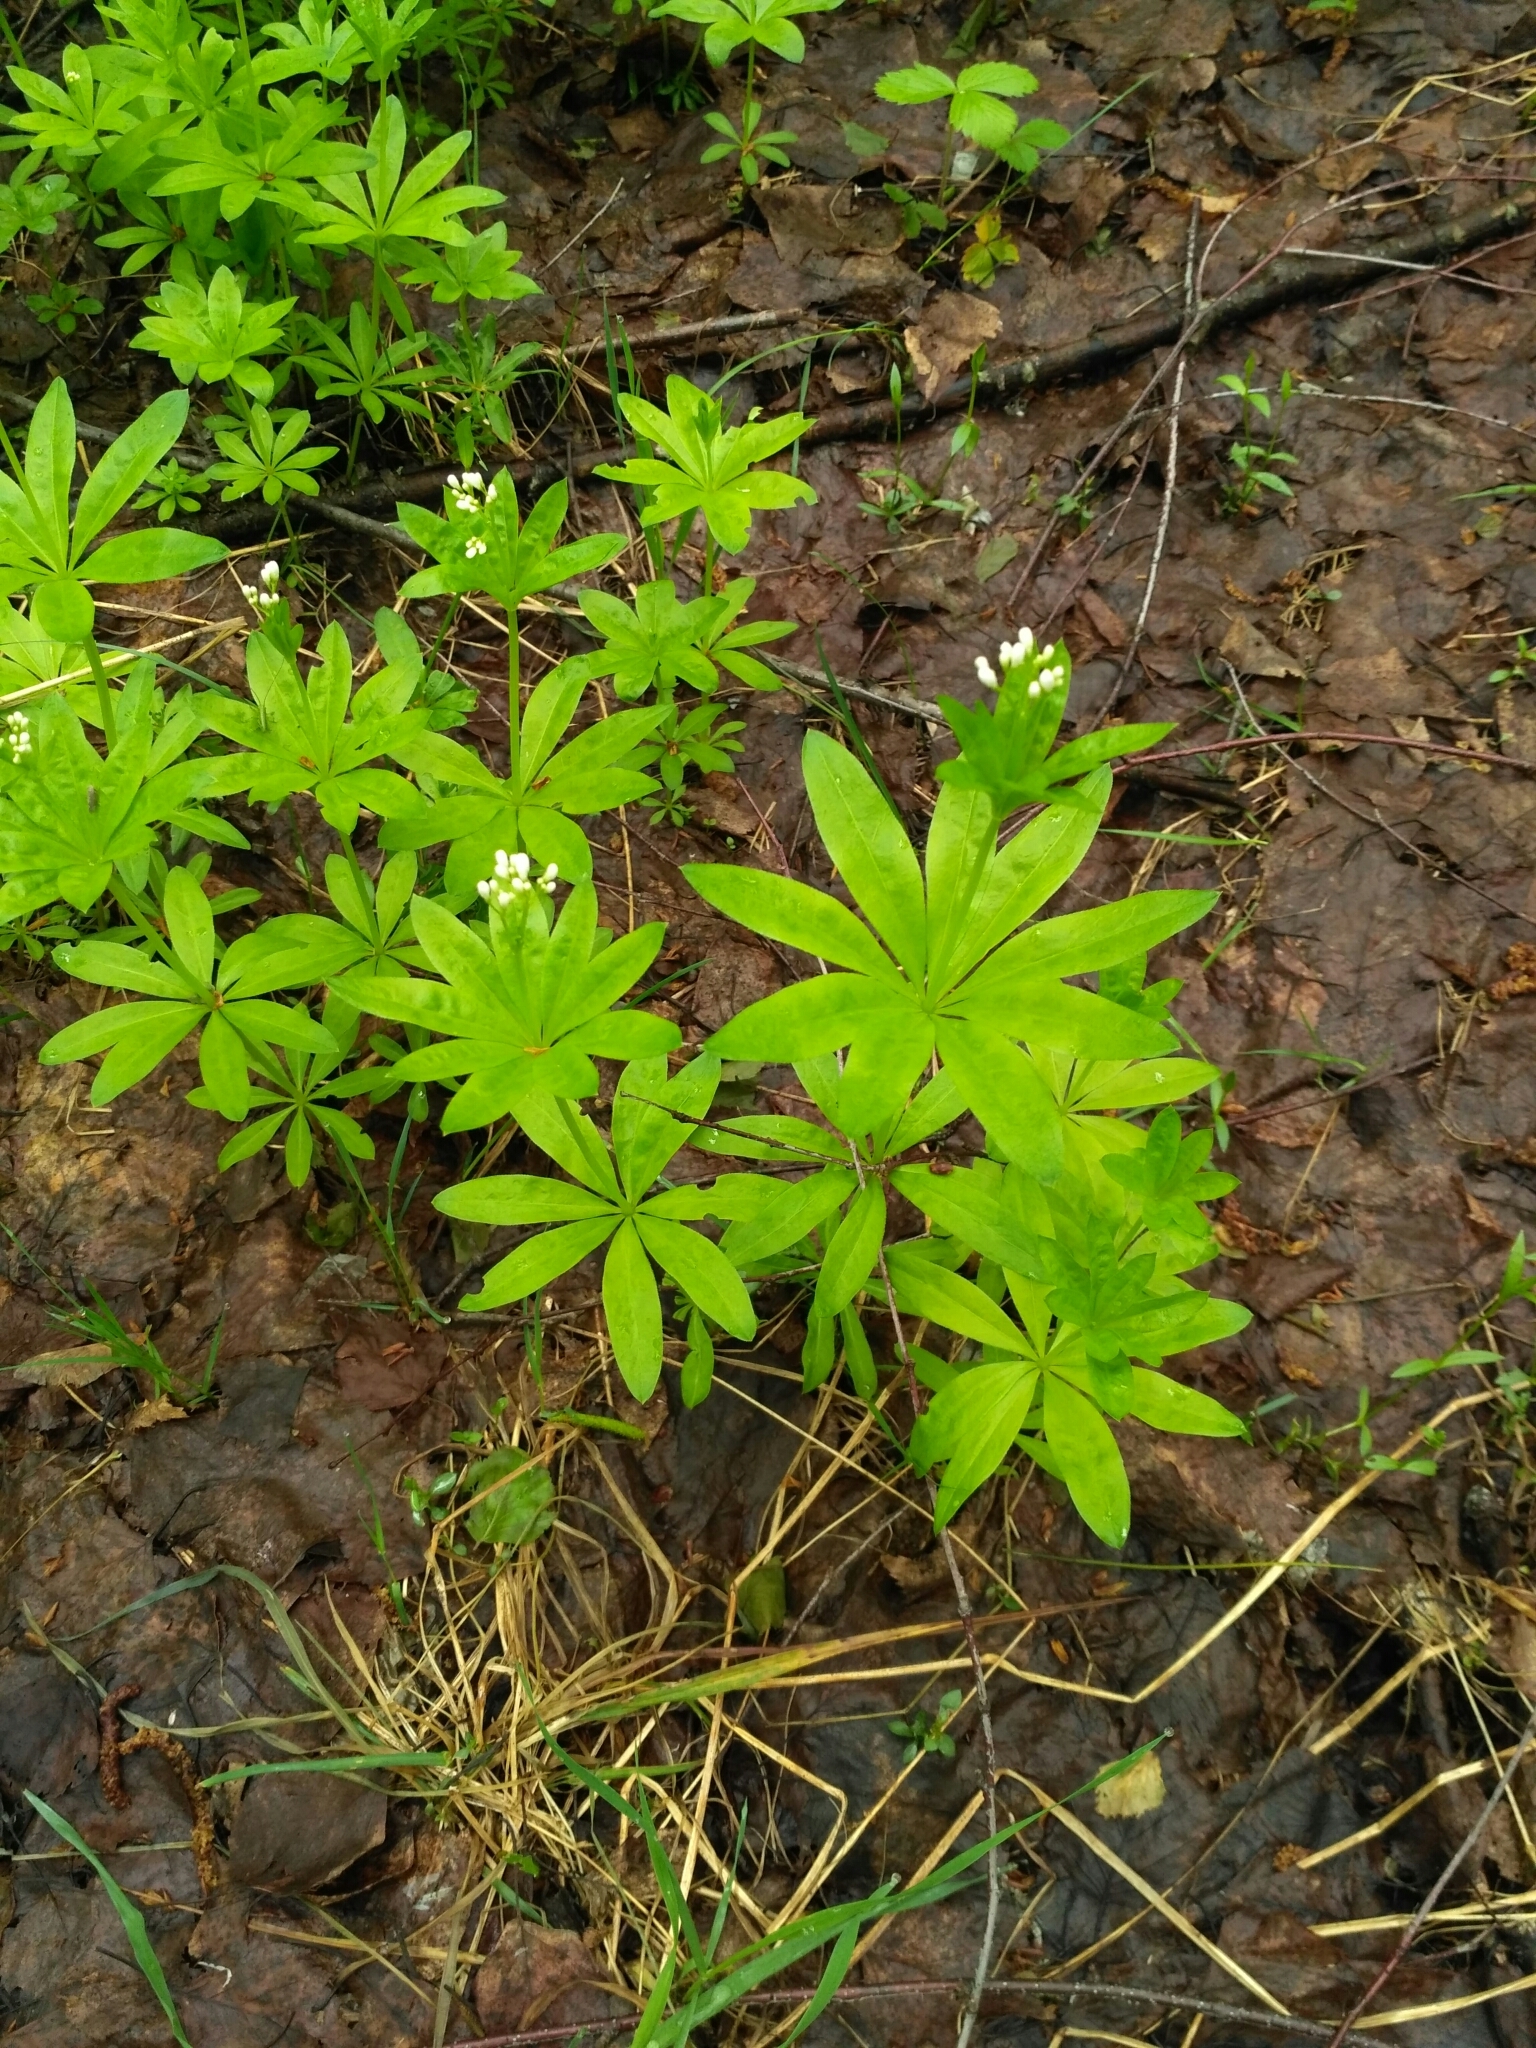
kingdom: Plantae
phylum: Tracheophyta
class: Magnoliopsida
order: Gentianales
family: Rubiaceae
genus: Galium
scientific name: Galium odoratum
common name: Sweet woodruff
